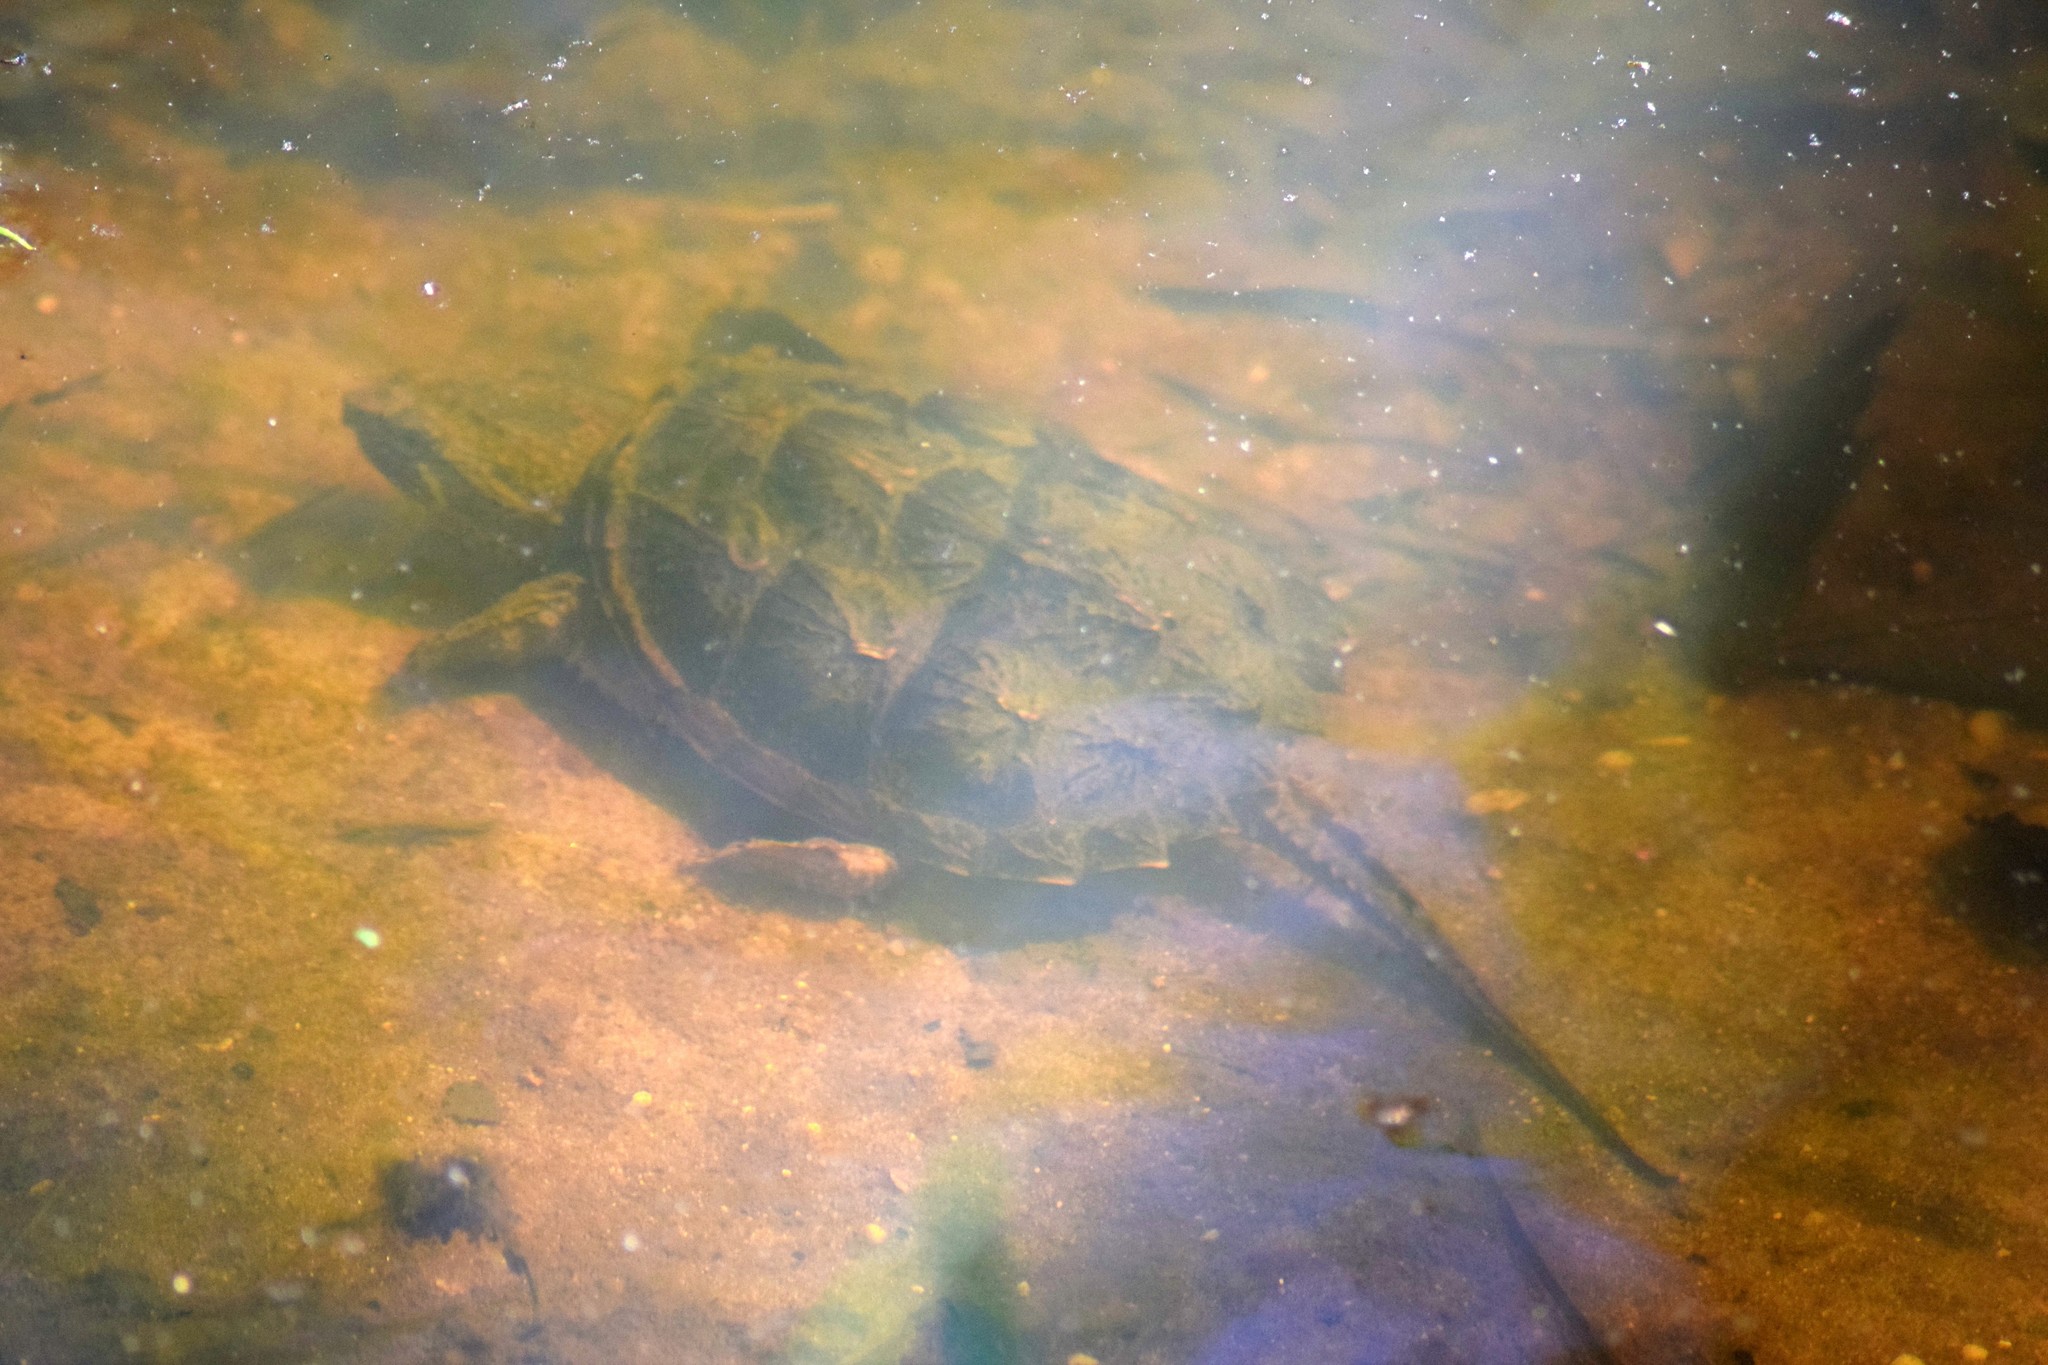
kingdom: Animalia
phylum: Chordata
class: Testudines
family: Chelydridae
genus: Chelydra
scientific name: Chelydra serpentina
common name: Common snapping turtle
